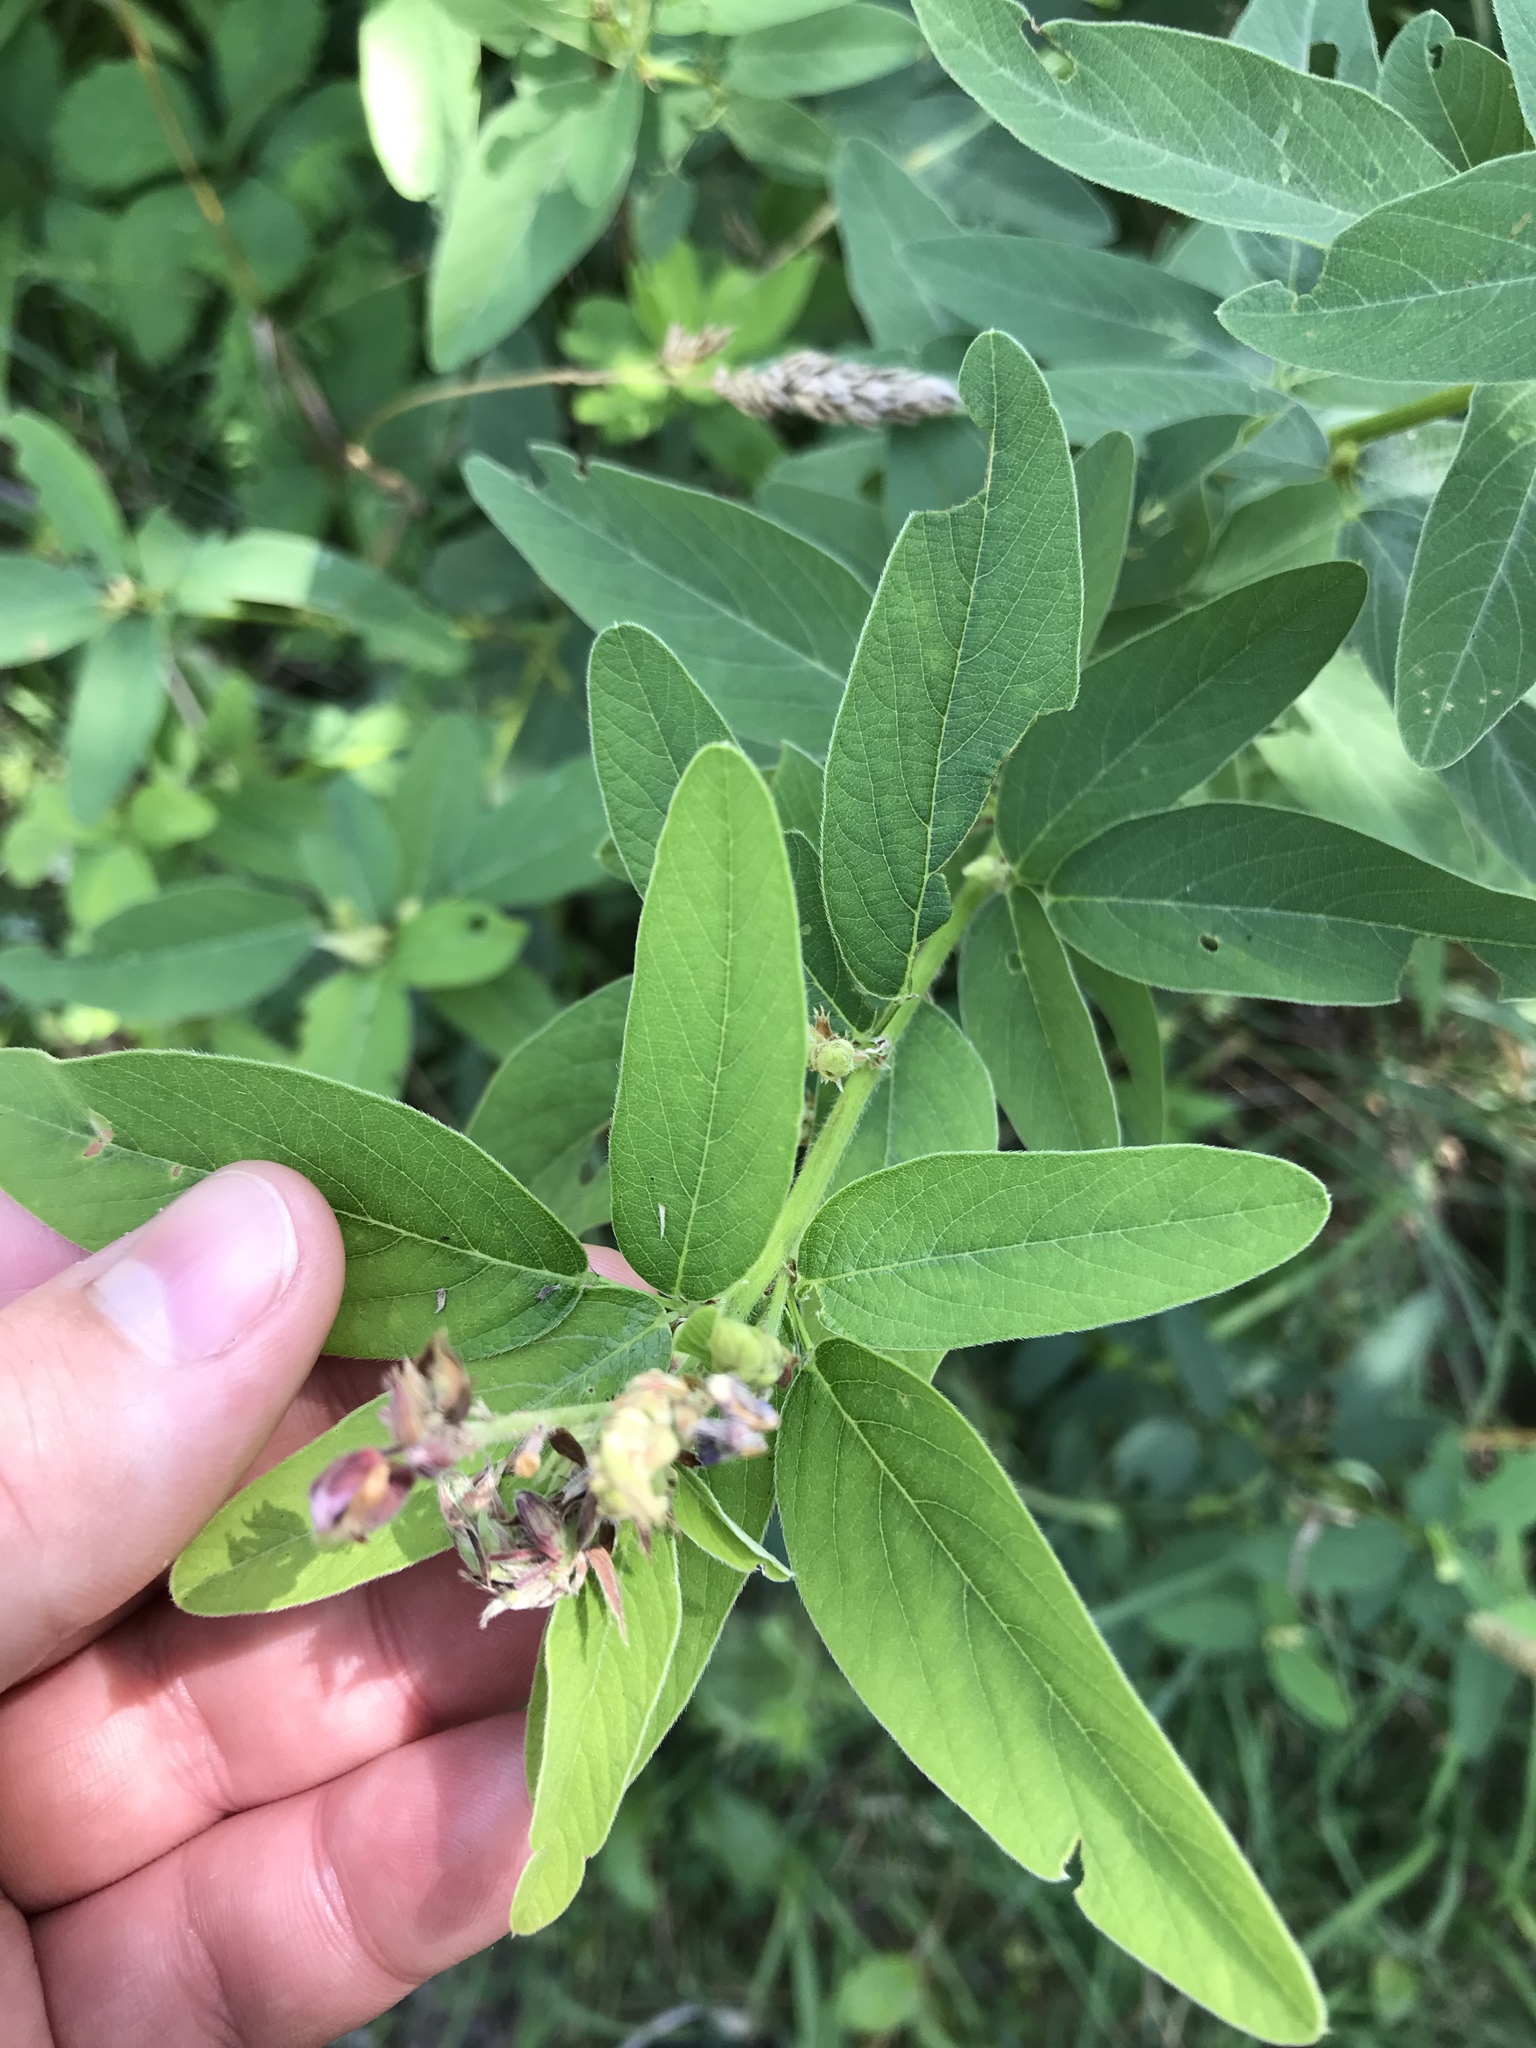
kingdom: Plantae
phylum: Tracheophyta
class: Magnoliopsida
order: Fabales
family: Fabaceae
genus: Desmodium
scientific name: Desmodium canadense
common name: Canada tick-trefoil
